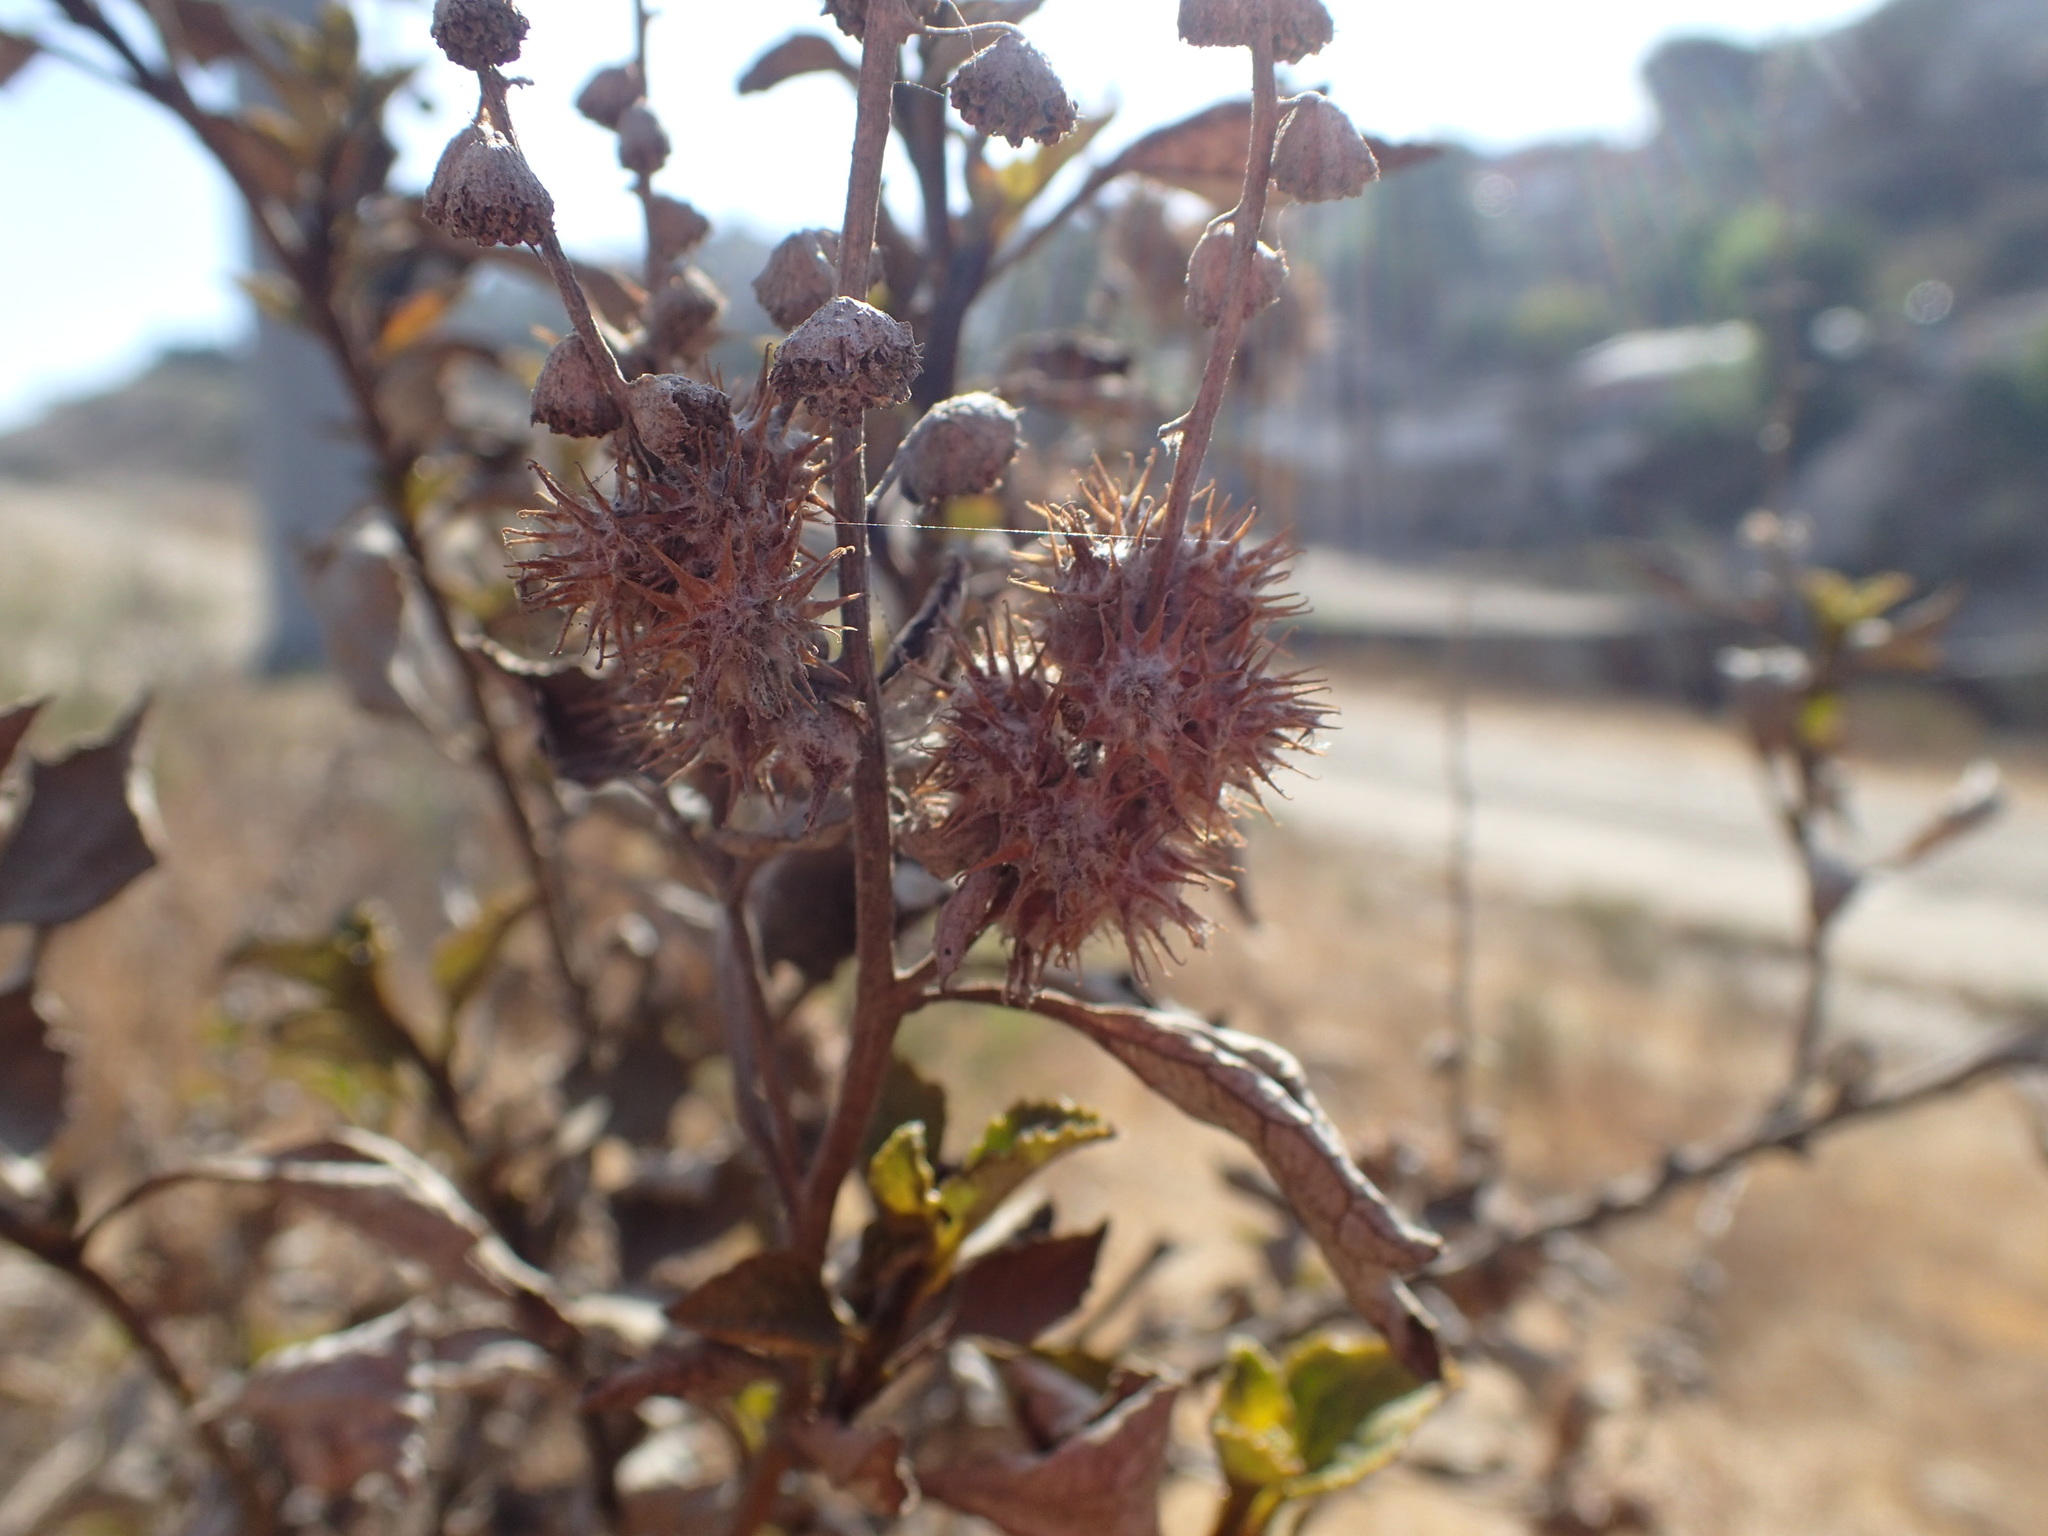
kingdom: Plantae
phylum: Tracheophyta
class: Magnoliopsida
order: Asterales
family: Asteraceae
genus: Ambrosia
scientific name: Ambrosia chenopodiifolia
